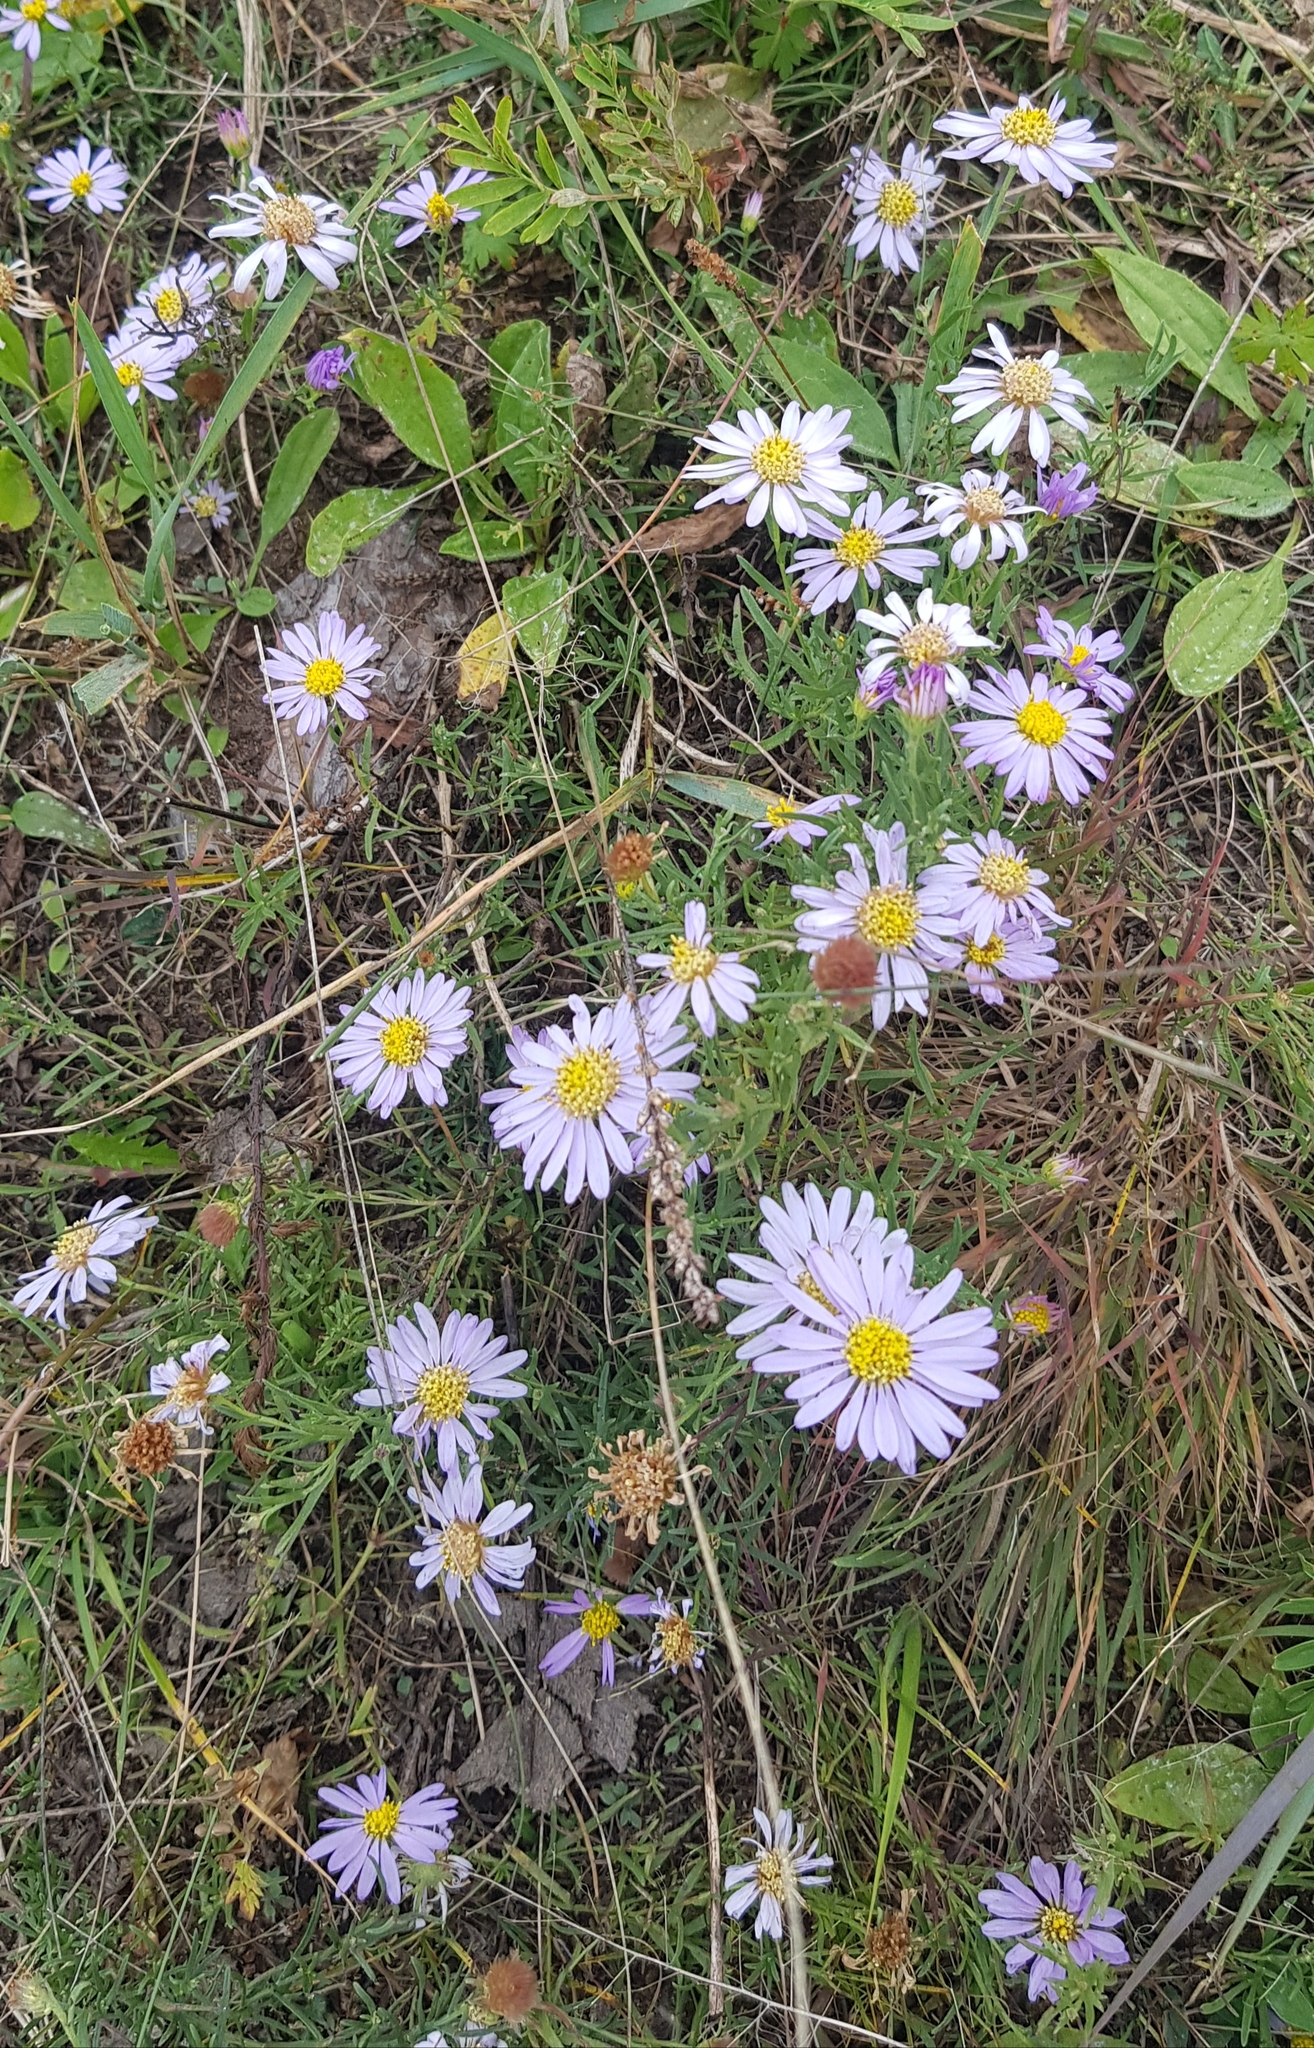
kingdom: Plantae
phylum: Tracheophyta
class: Magnoliopsida
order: Asterales
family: Asteraceae
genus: Aster
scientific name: Aster biennis
